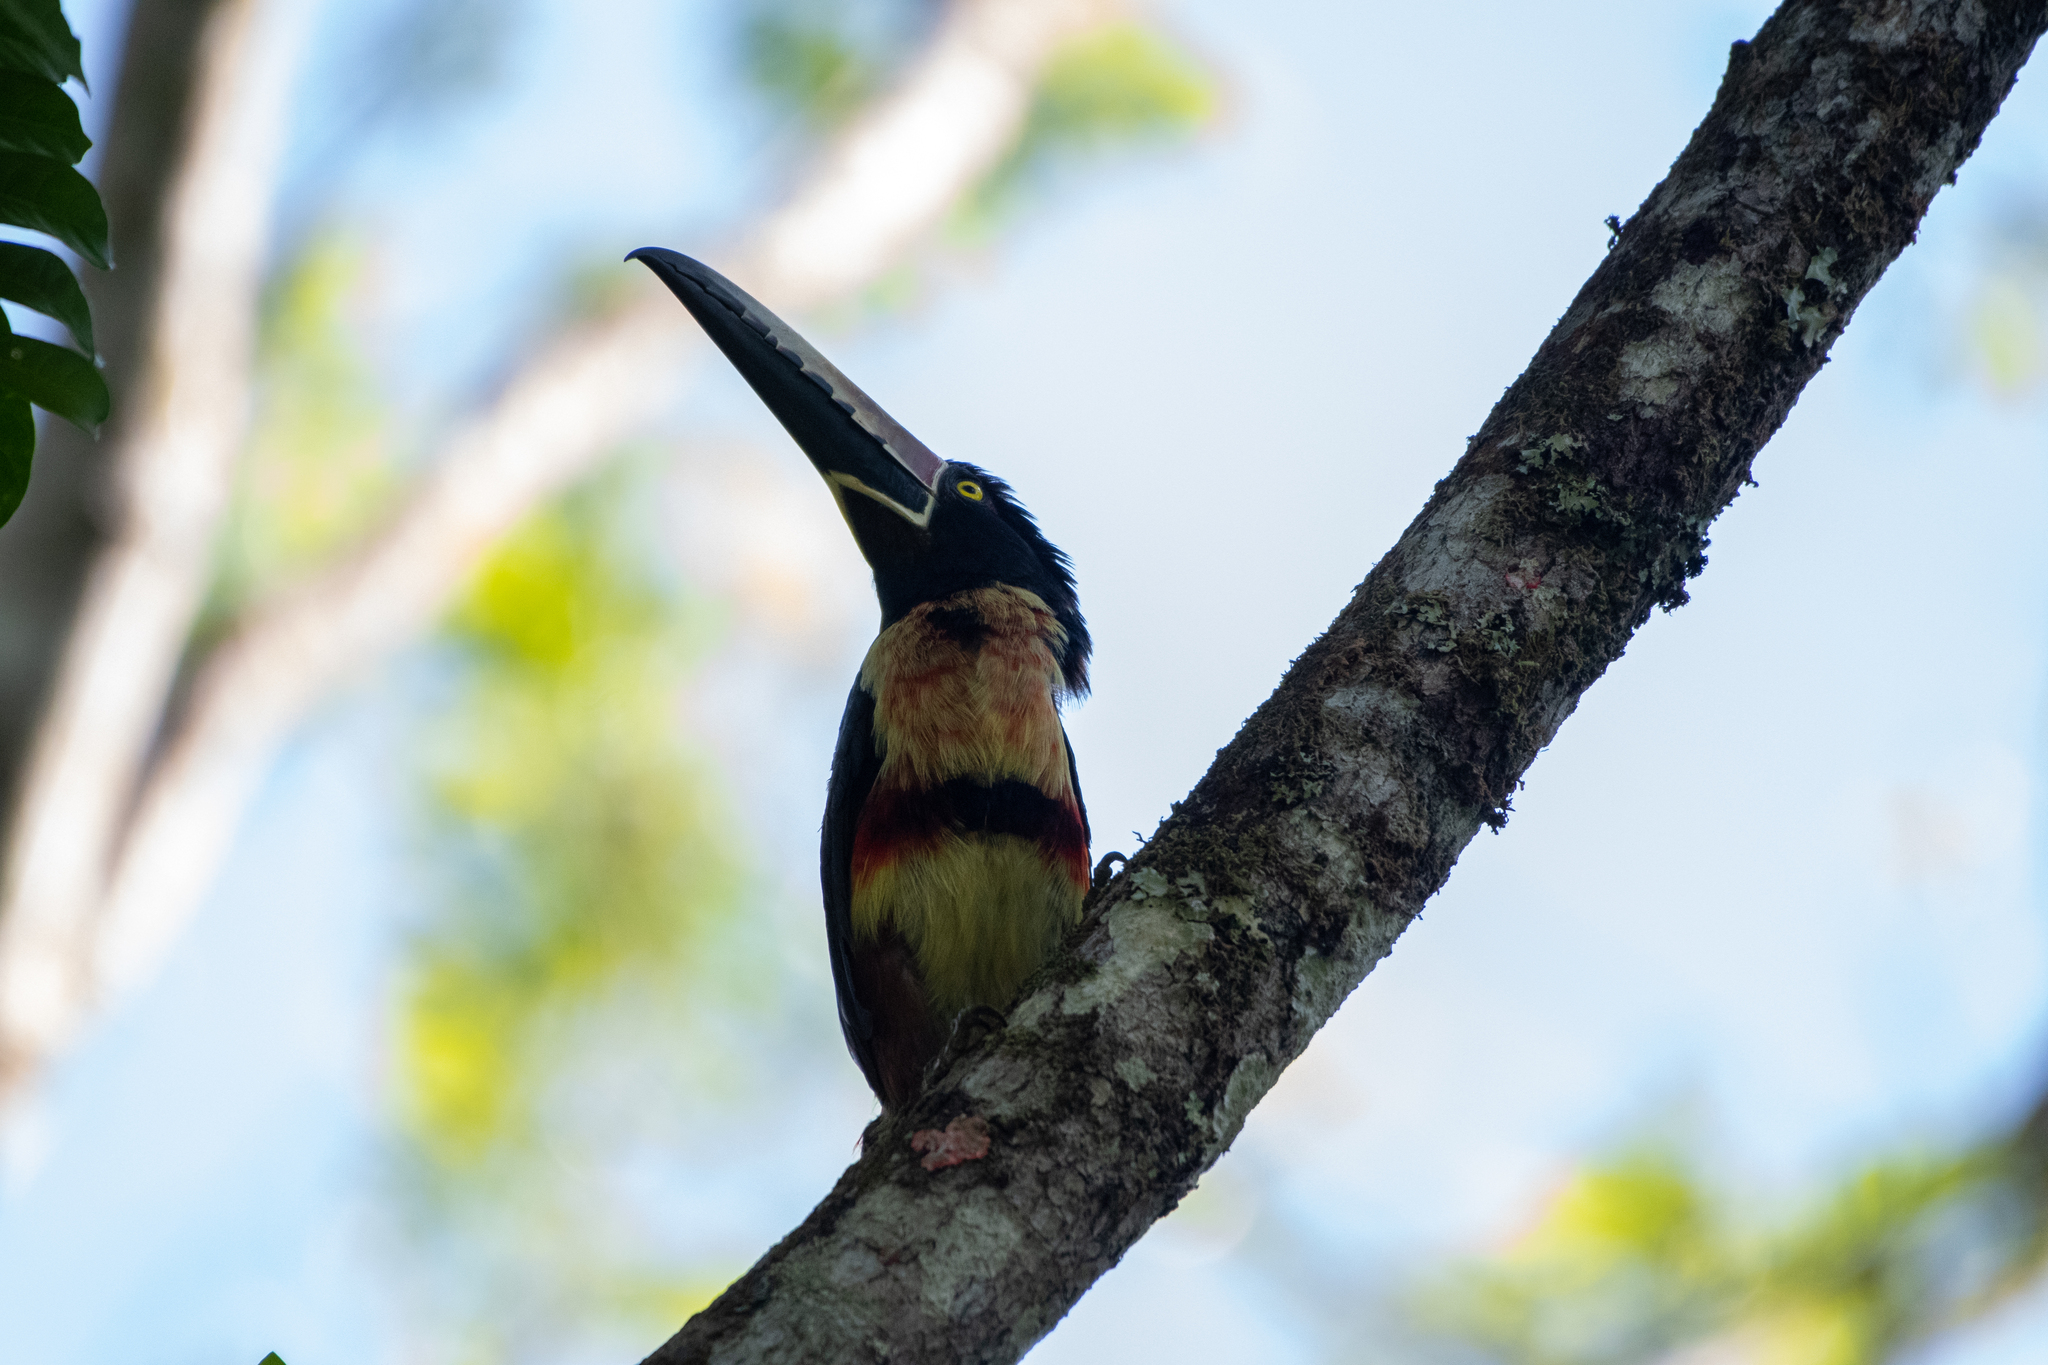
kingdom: Animalia
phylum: Chordata
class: Aves
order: Piciformes
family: Ramphastidae
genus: Pteroglossus
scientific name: Pteroglossus torquatus
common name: Collared aracari
